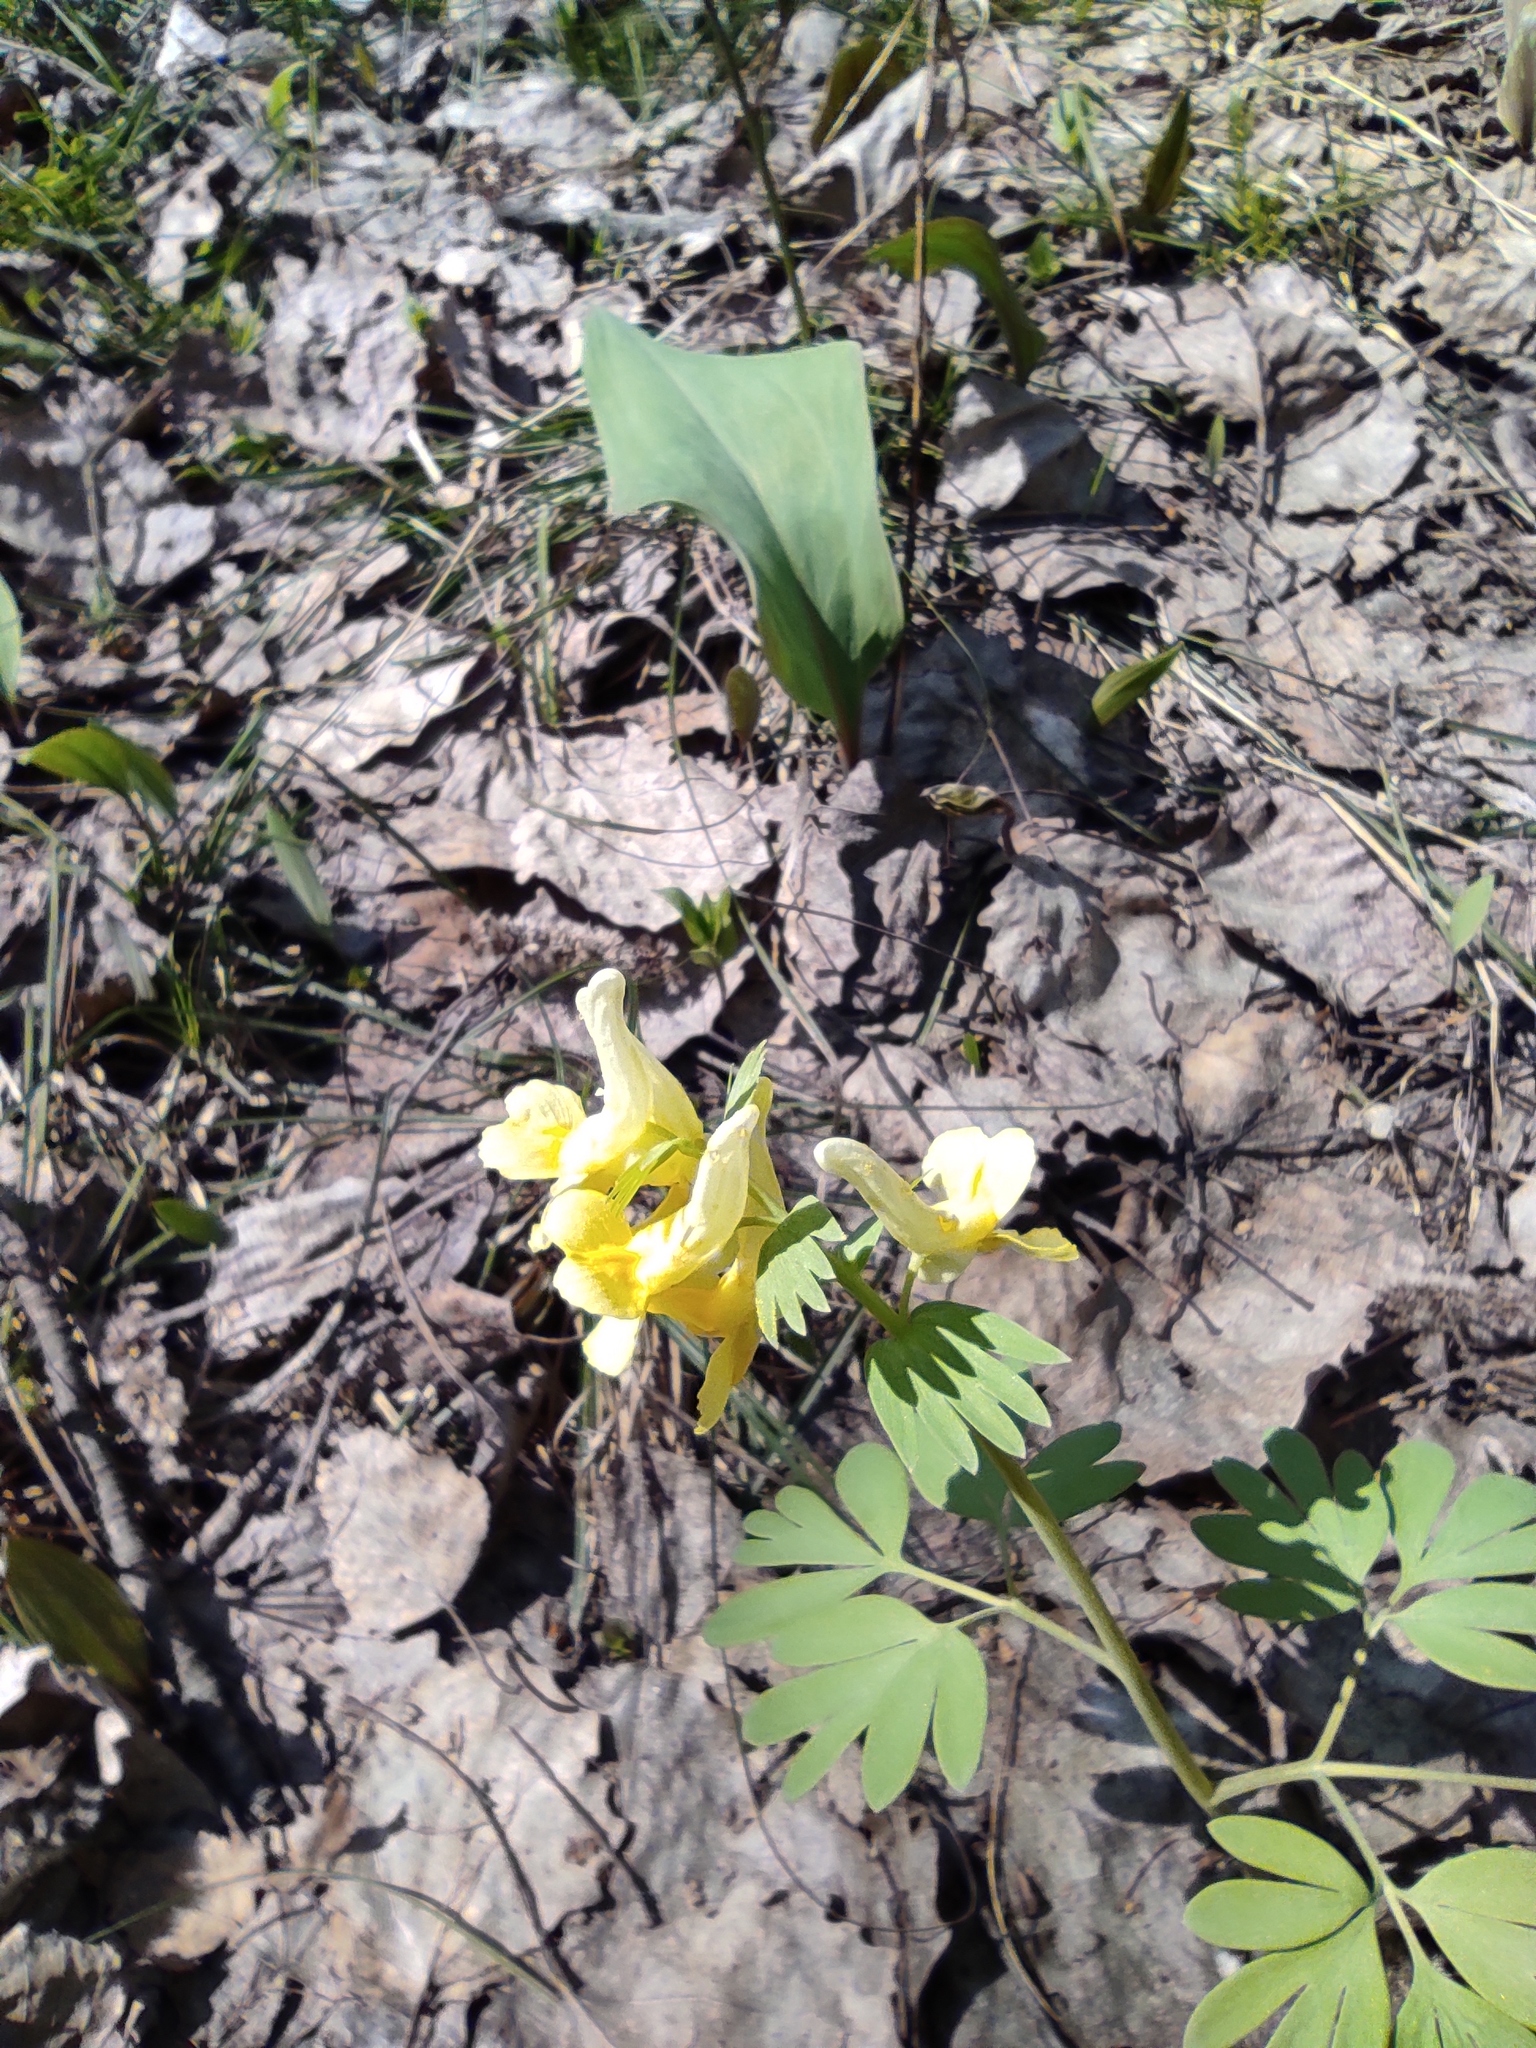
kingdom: Plantae
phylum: Tracheophyta
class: Magnoliopsida
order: Ranunculales
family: Papaveraceae
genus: Corydalis
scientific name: Corydalis bracteata
